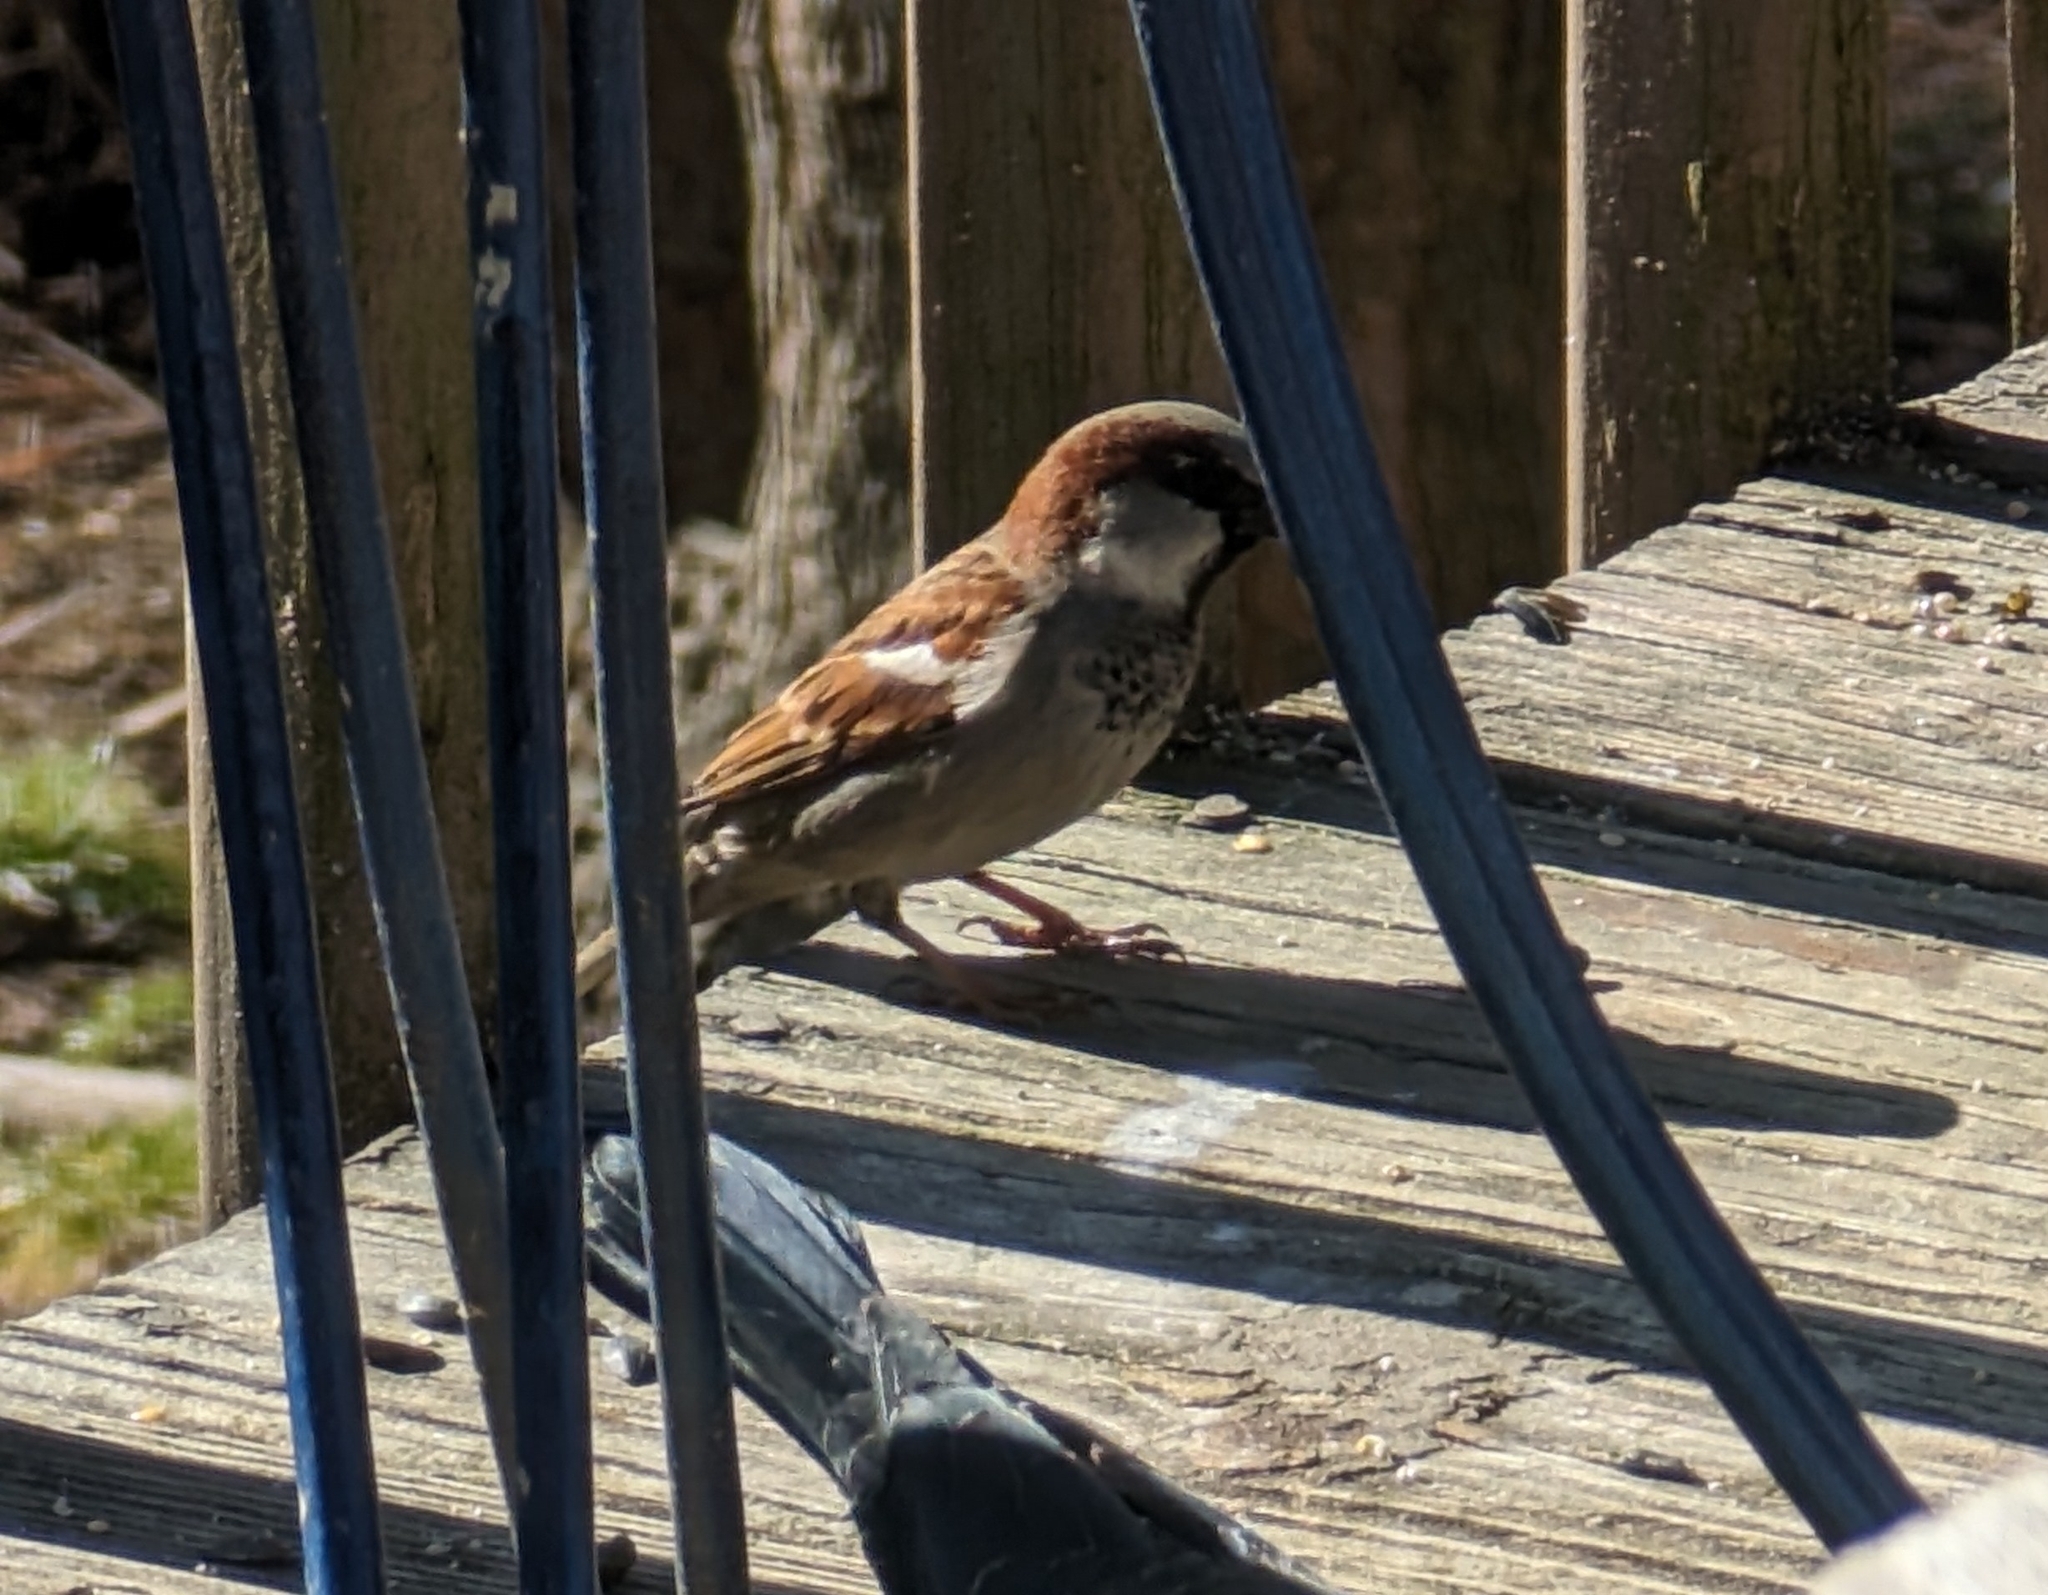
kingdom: Animalia
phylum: Chordata
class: Aves
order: Passeriformes
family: Passeridae
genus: Passer
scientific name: Passer domesticus
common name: House sparrow
